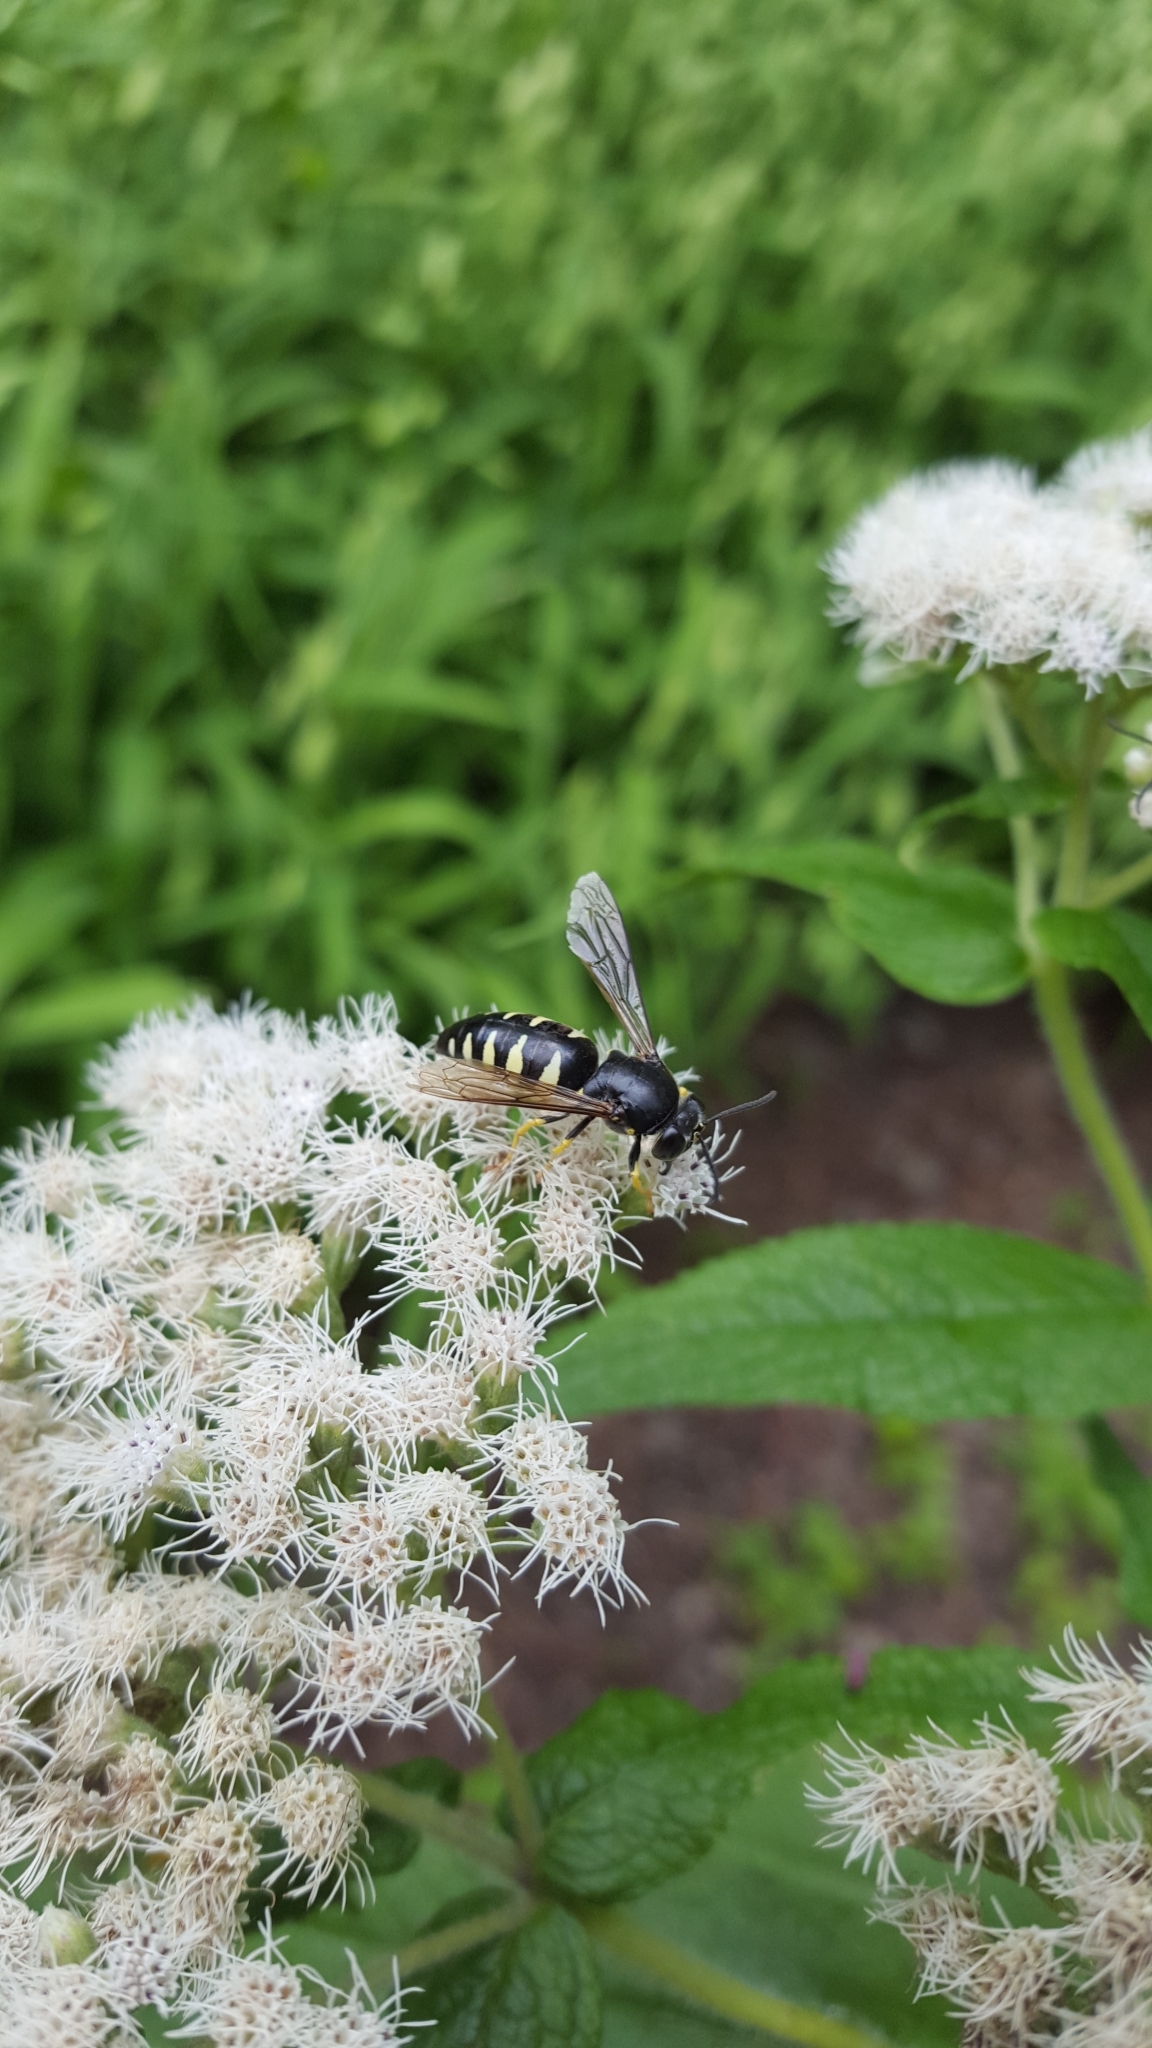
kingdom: Animalia
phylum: Arthropoda
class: Insecta
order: Hymenoptera
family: Crabronidae
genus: Bicyrtes
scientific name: Bicyrtes quadrifasciatus
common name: Four-banded stink bug hunter wasp
